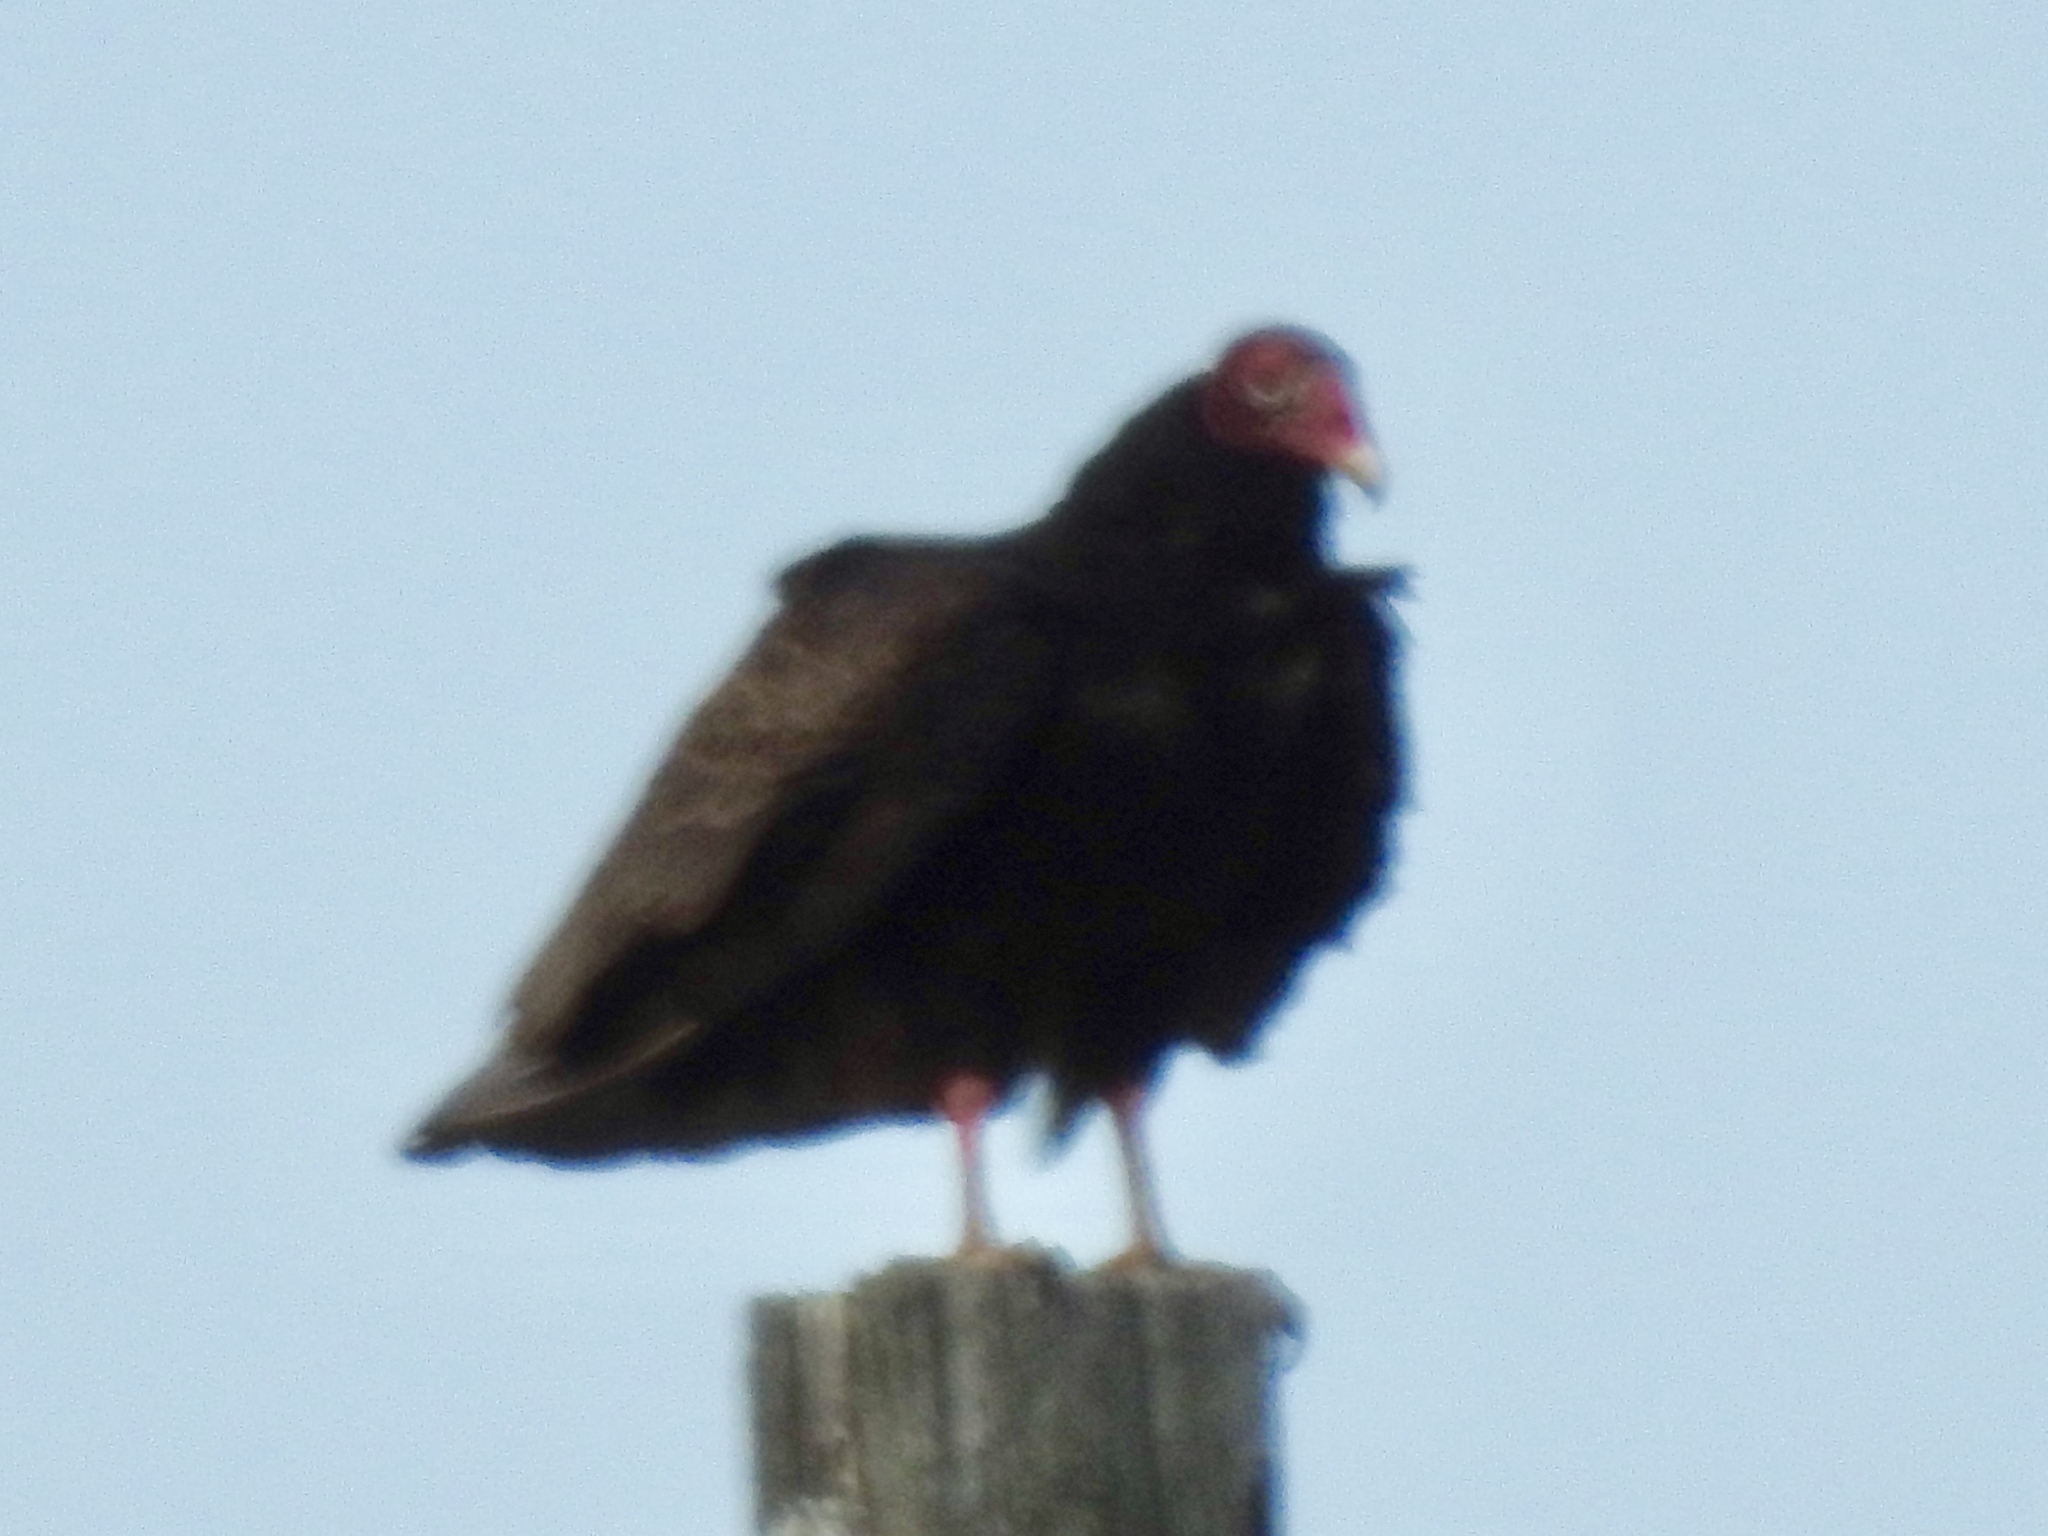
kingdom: Animalia
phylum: Chordata
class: Aves
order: Accipitriformes
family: Cathartidae
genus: Cathartes
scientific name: Cathartes aura
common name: Turkey vulture
